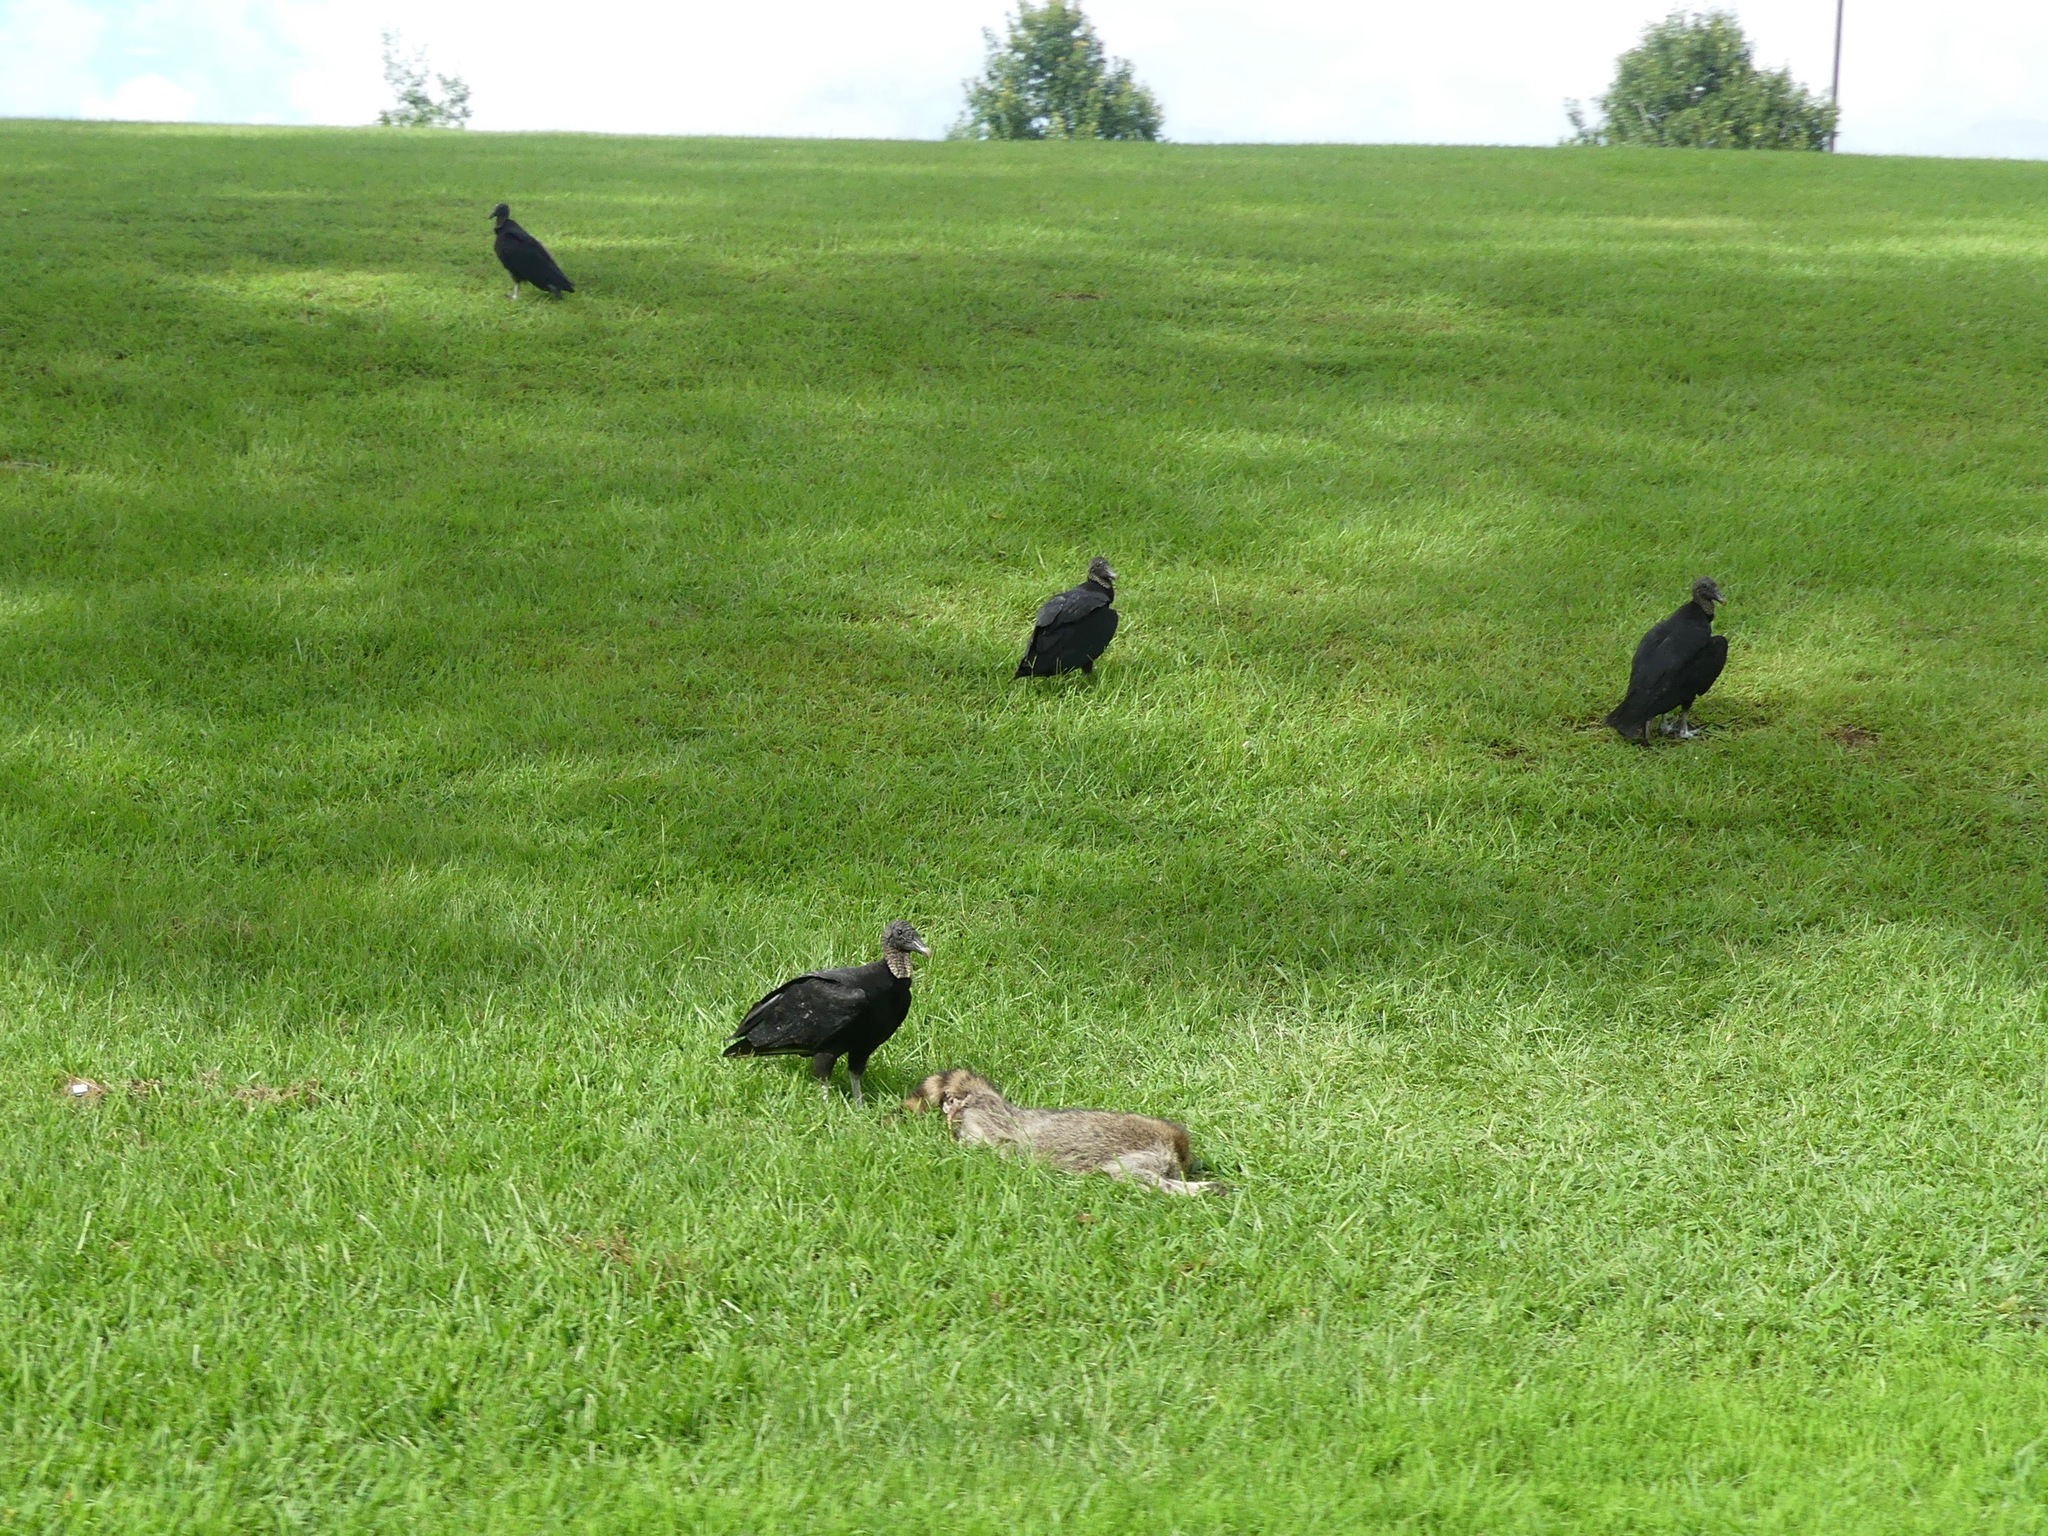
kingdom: Animalia
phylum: Chordata
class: Aves
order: Accipitriformes
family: Cathartidae
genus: Coragyps
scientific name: Coragyps atratus
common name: Black vulture
